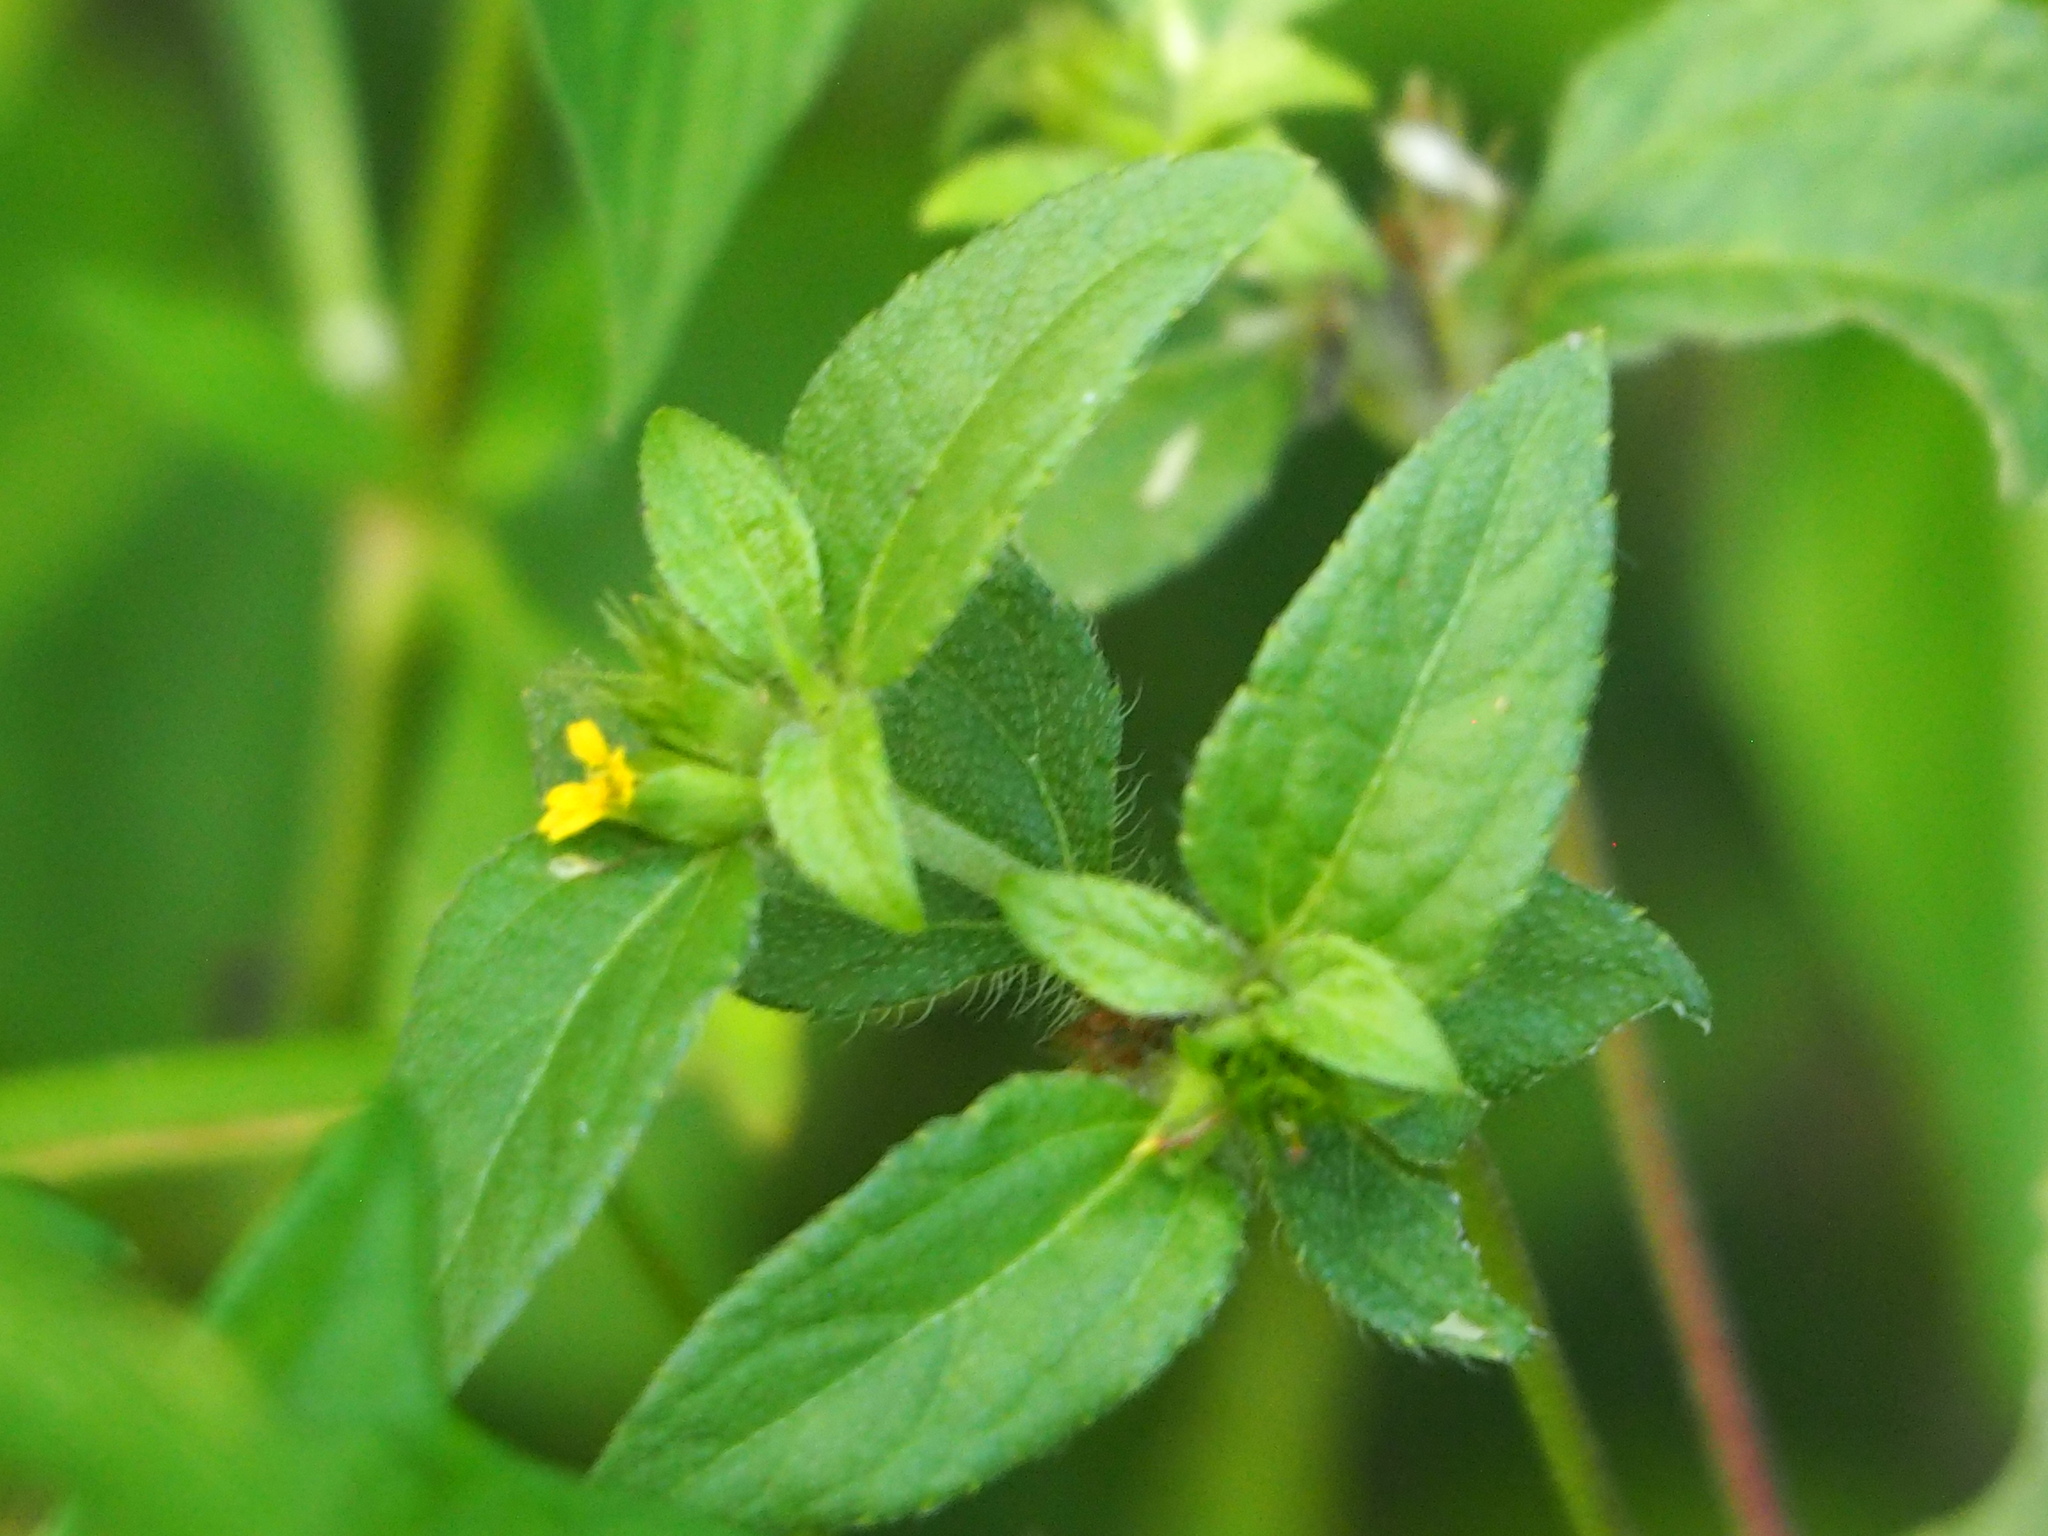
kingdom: Plantae
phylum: Tracheophyta
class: Magnoliopsida
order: Asterales
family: Asteraceae
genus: Synedrella
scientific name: Synedrella nodiflora
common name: Nodeweed
